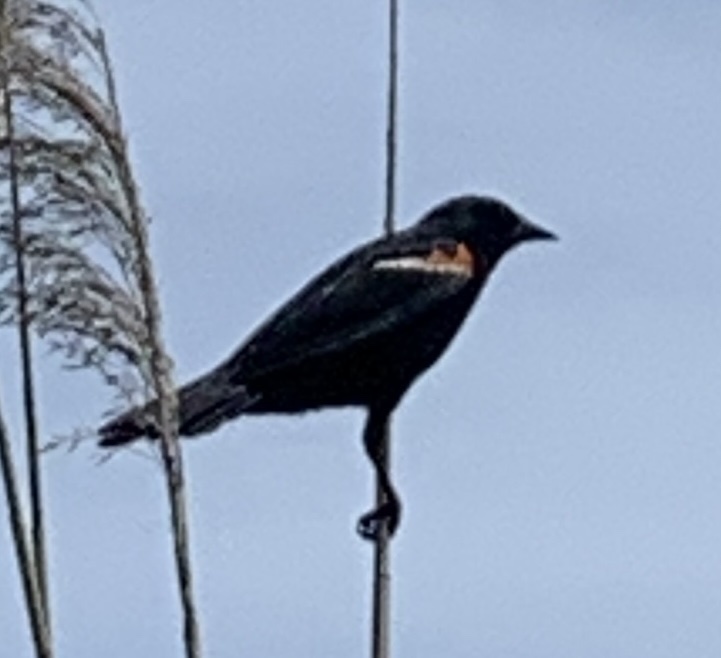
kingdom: Animalia
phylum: Chordata
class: Aves
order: Passeriformes
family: Icteridae
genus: Agelaius
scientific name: Agelaius phoeniceus
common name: Red-winged blackbird
